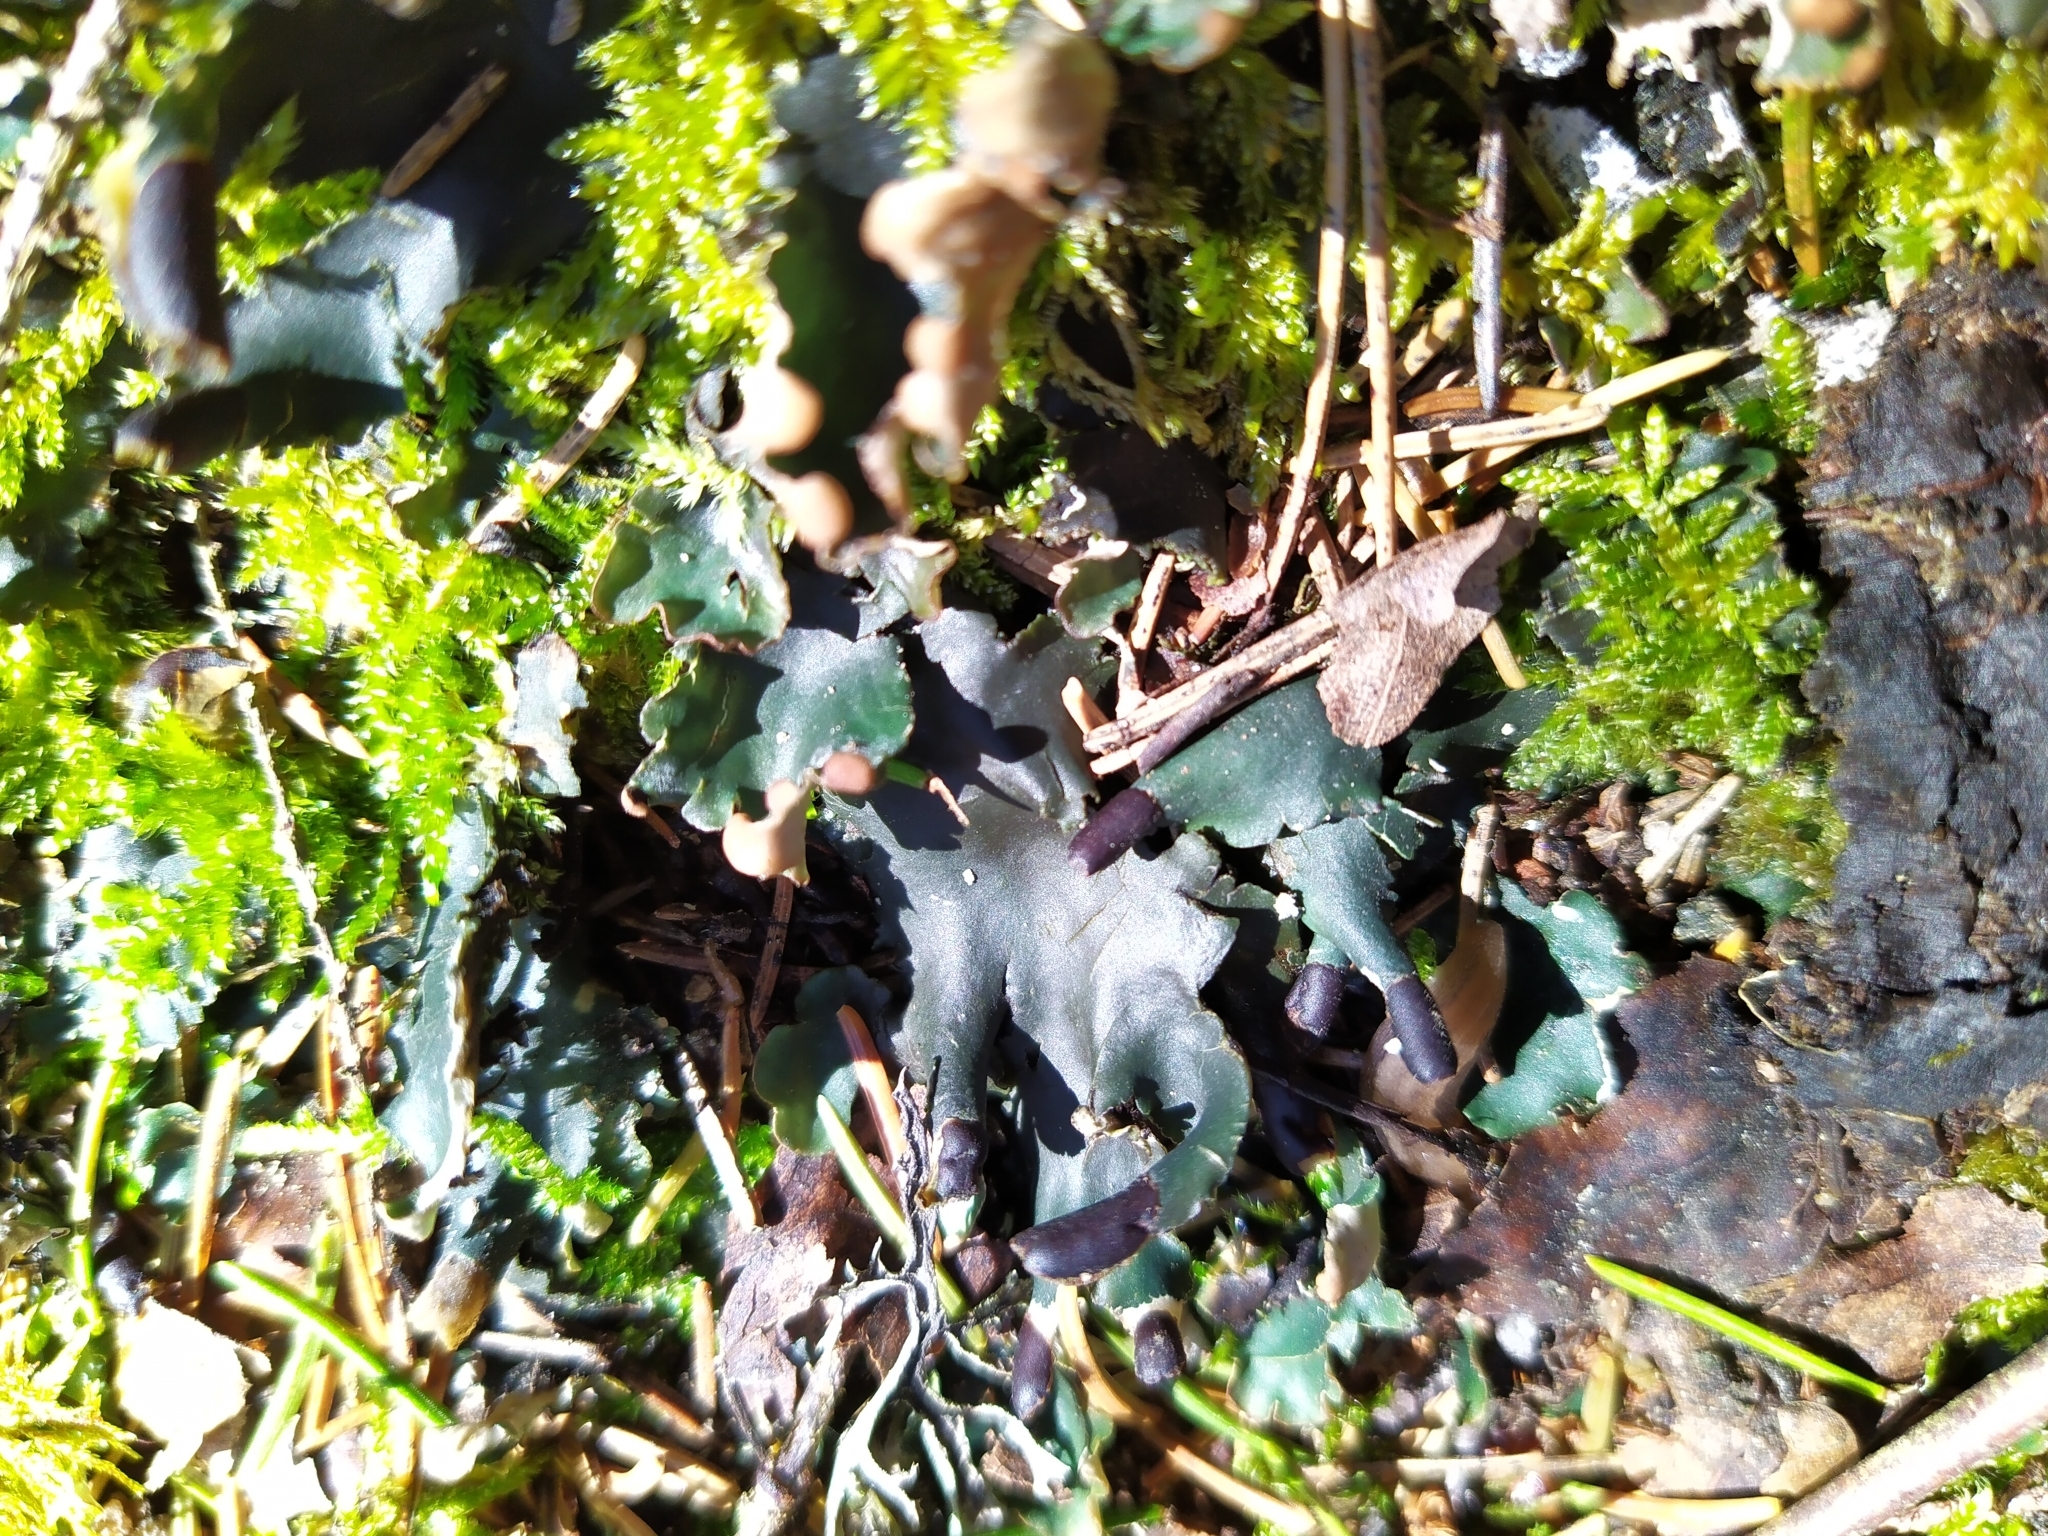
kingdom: Fungi
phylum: Ascomycota
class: Lecanoromycetes
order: Peltigerales
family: Peltigeraceae
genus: Peltigera
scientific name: Peltigera malacea
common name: Matt felt lichen
